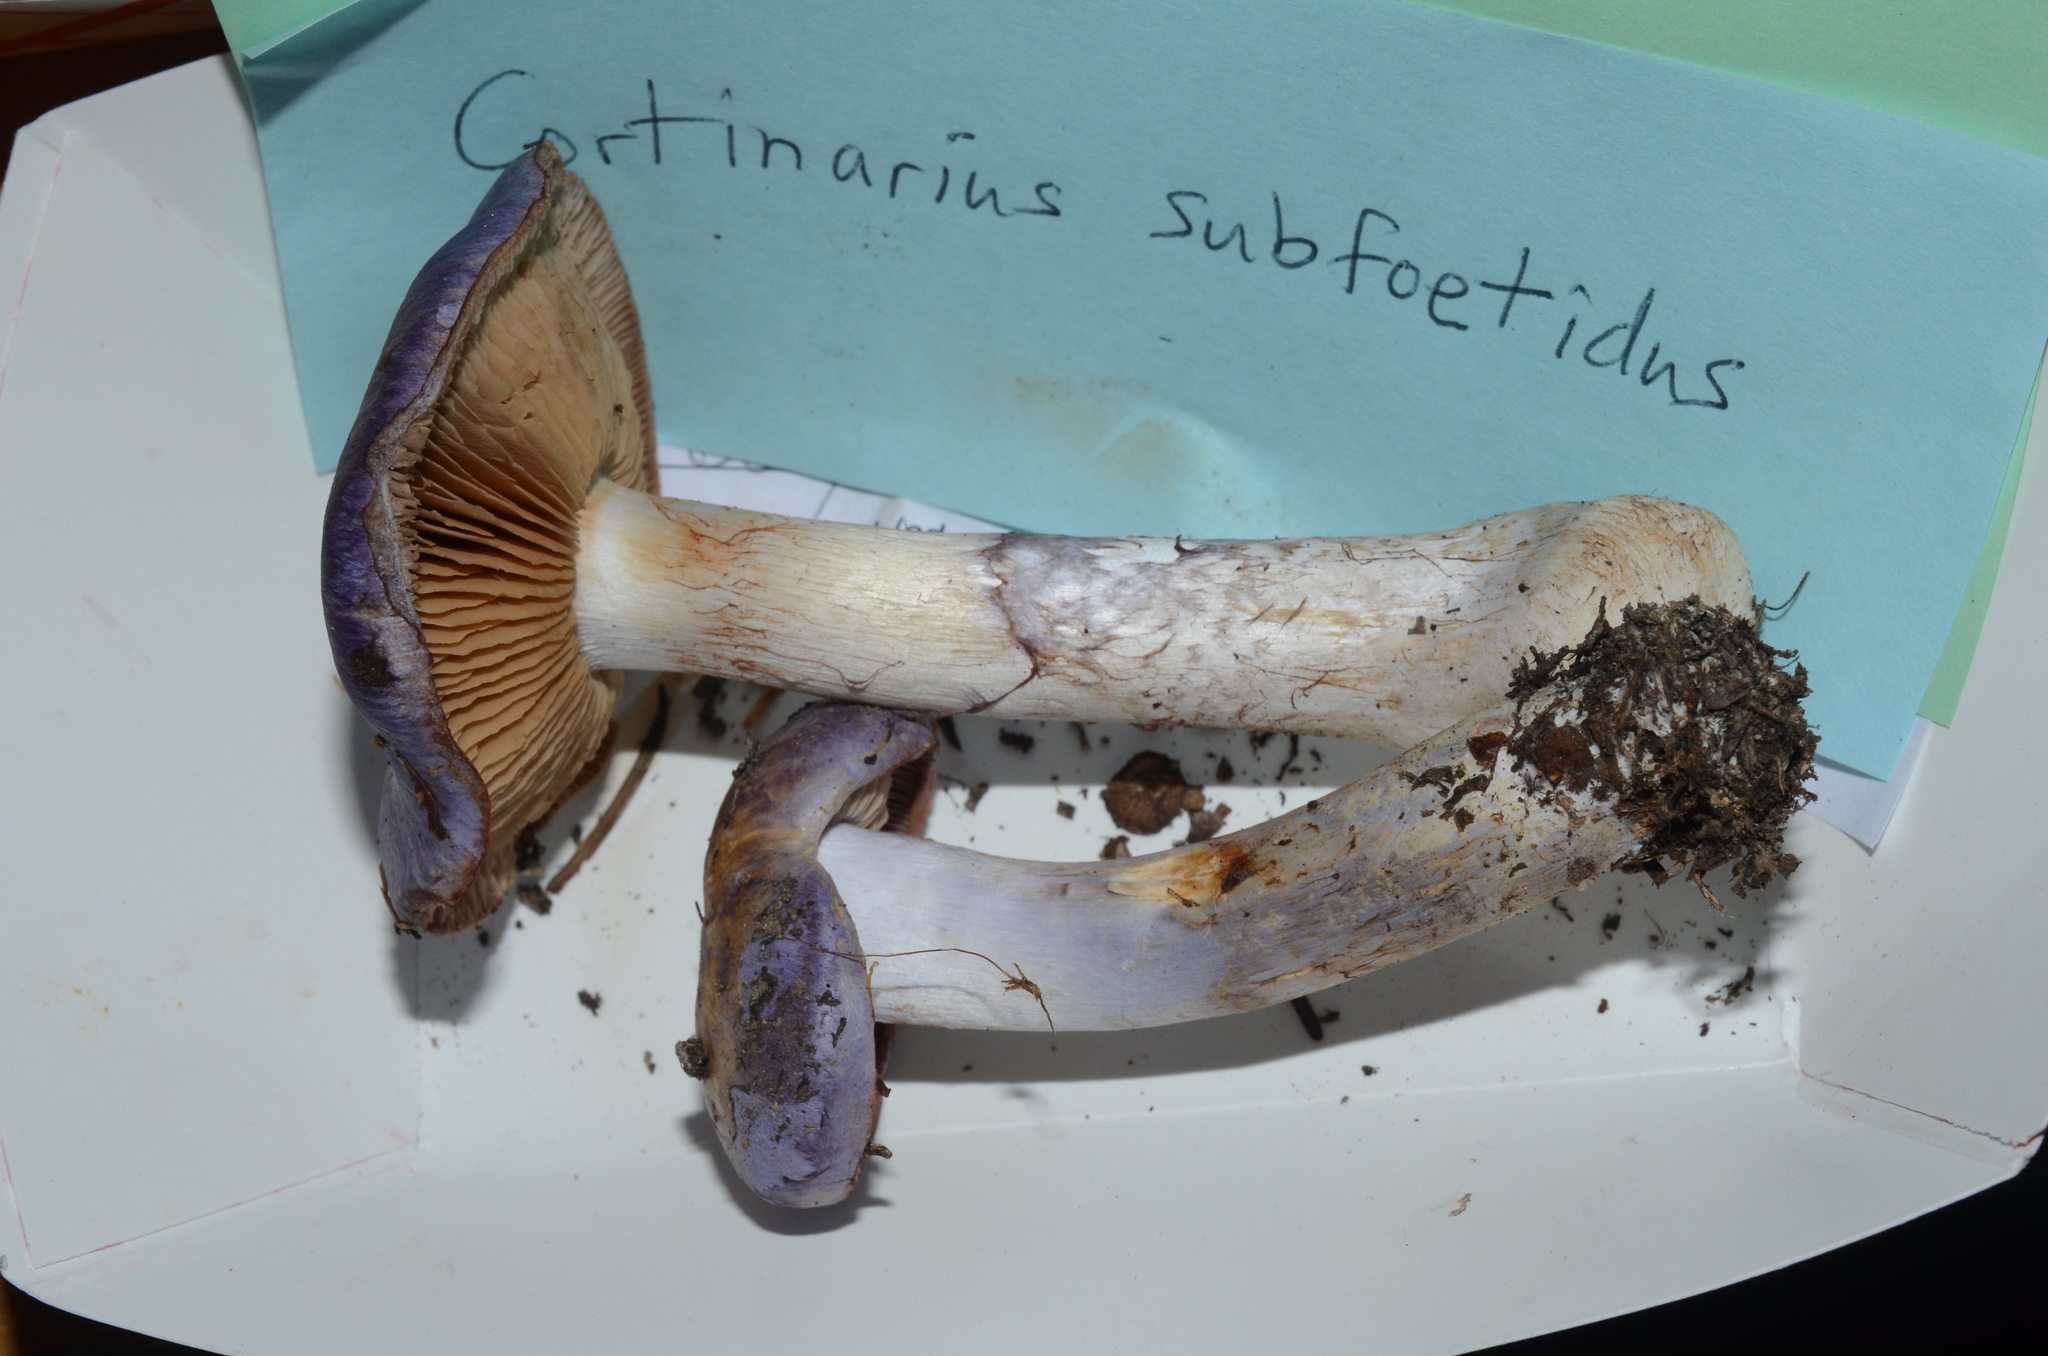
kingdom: Fungi
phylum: Basidiomycota
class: Agaricomycetes
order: Agaricales
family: Cortinariaceae
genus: Phlegmacium
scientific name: Phlegmacium subfoetidum
